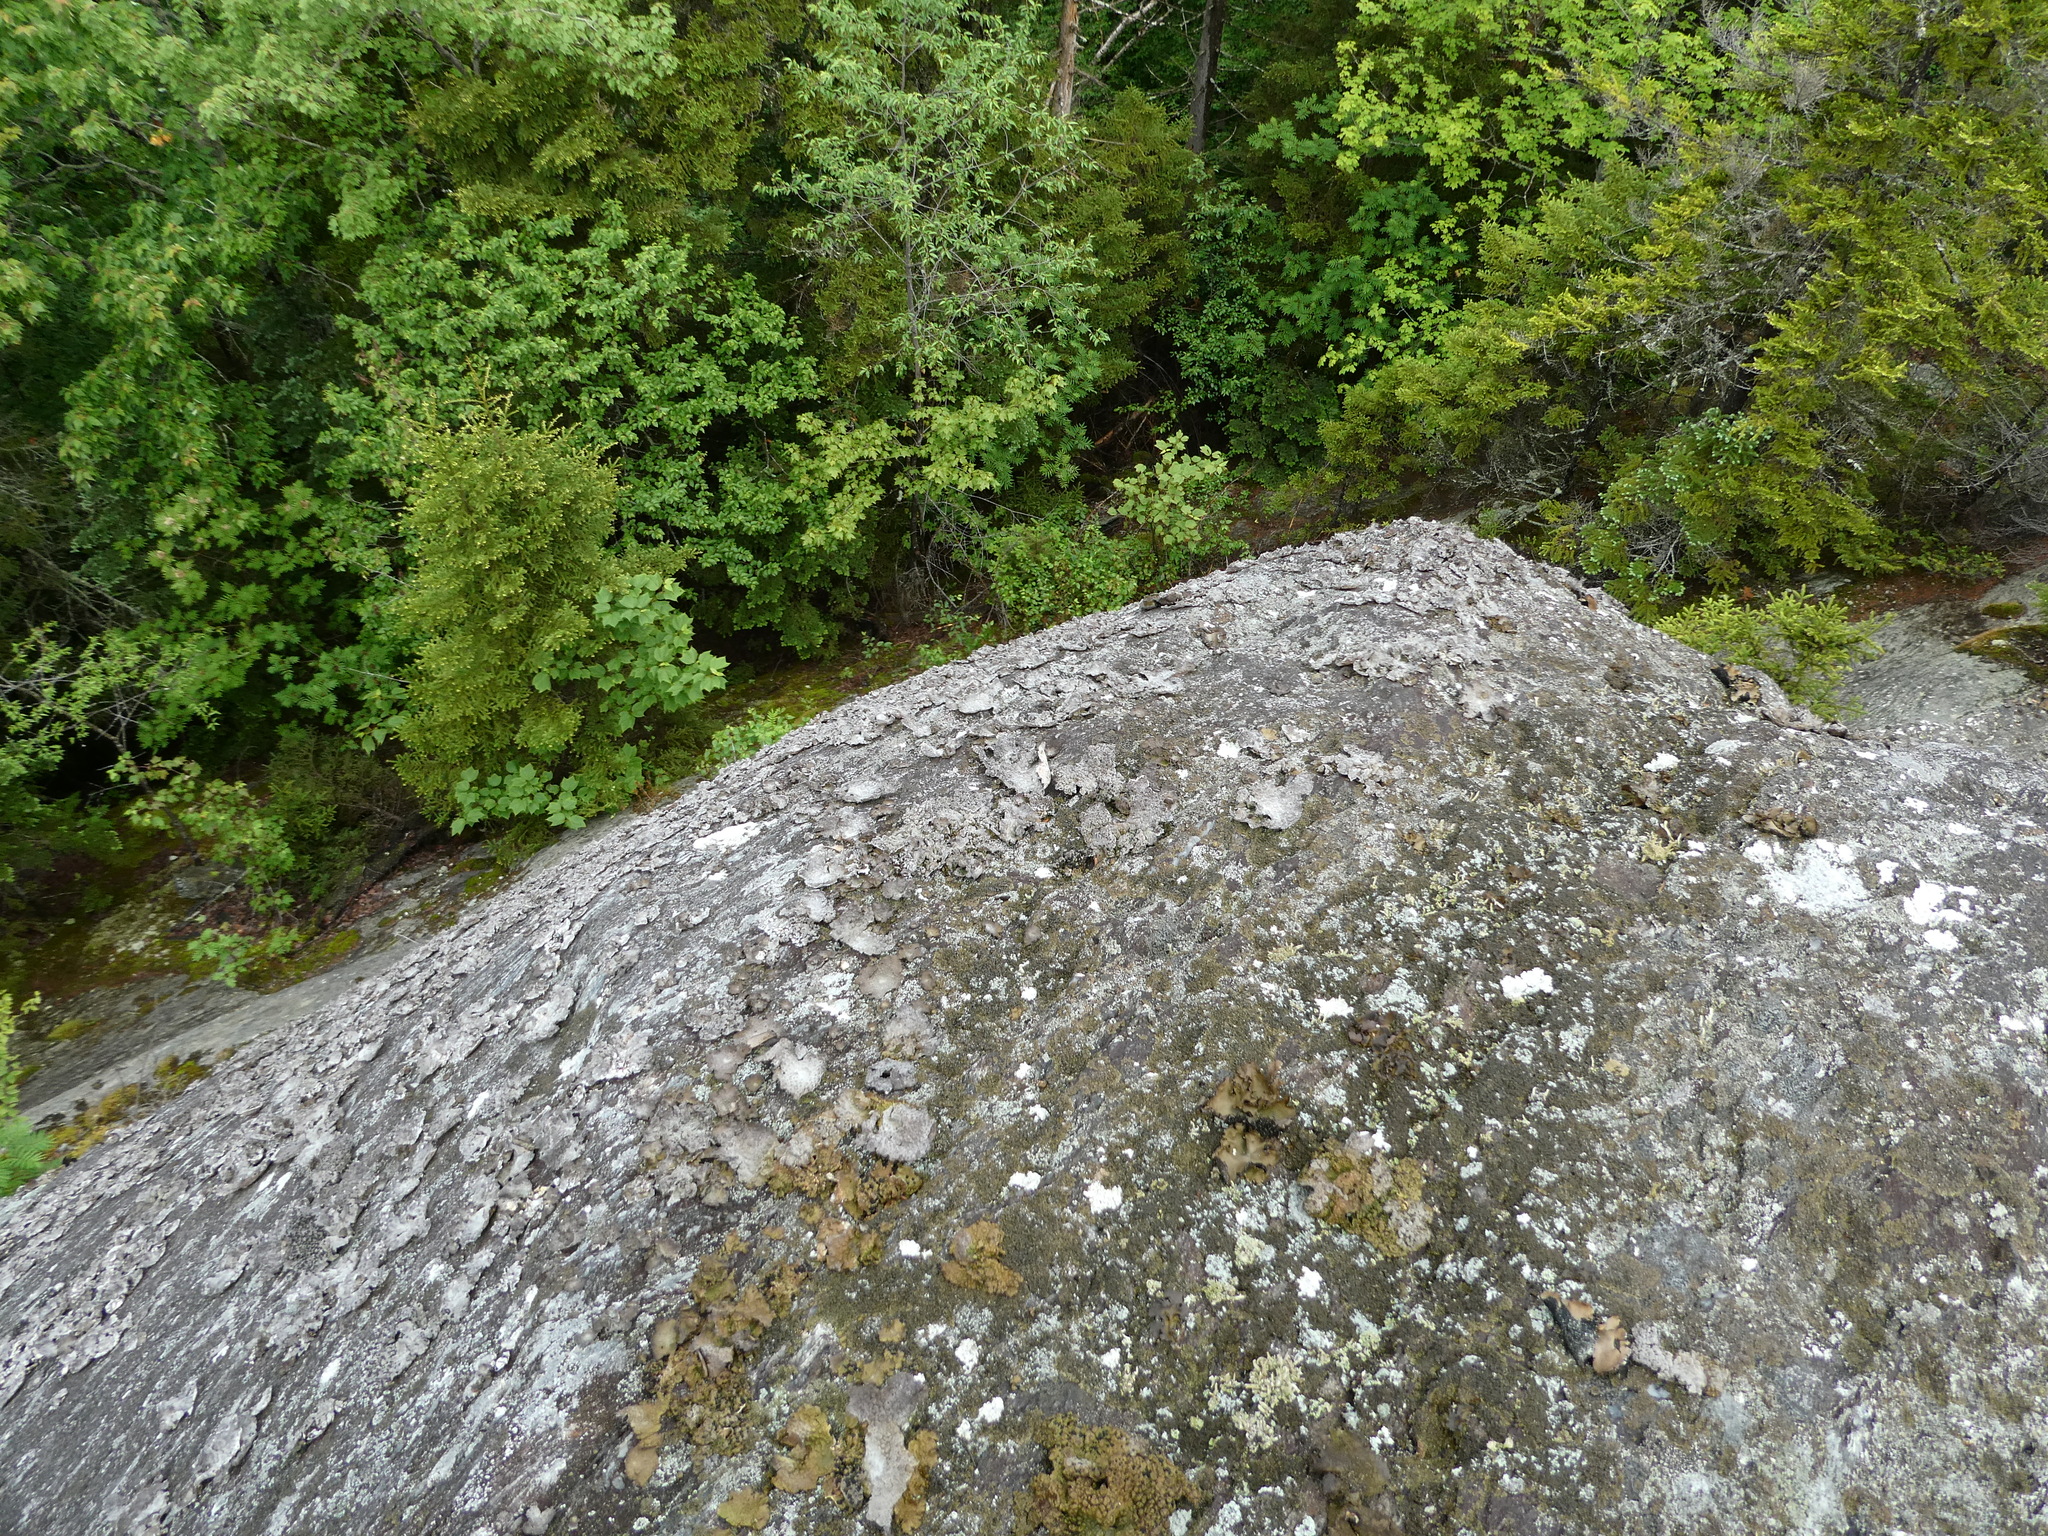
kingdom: Fungi
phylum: Ascomycota
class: Lecanoromycetes
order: Umbilicariales
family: Umbilicariaceae
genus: Lasallia
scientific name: Lasallia papulosa
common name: Common toadskin lichen
